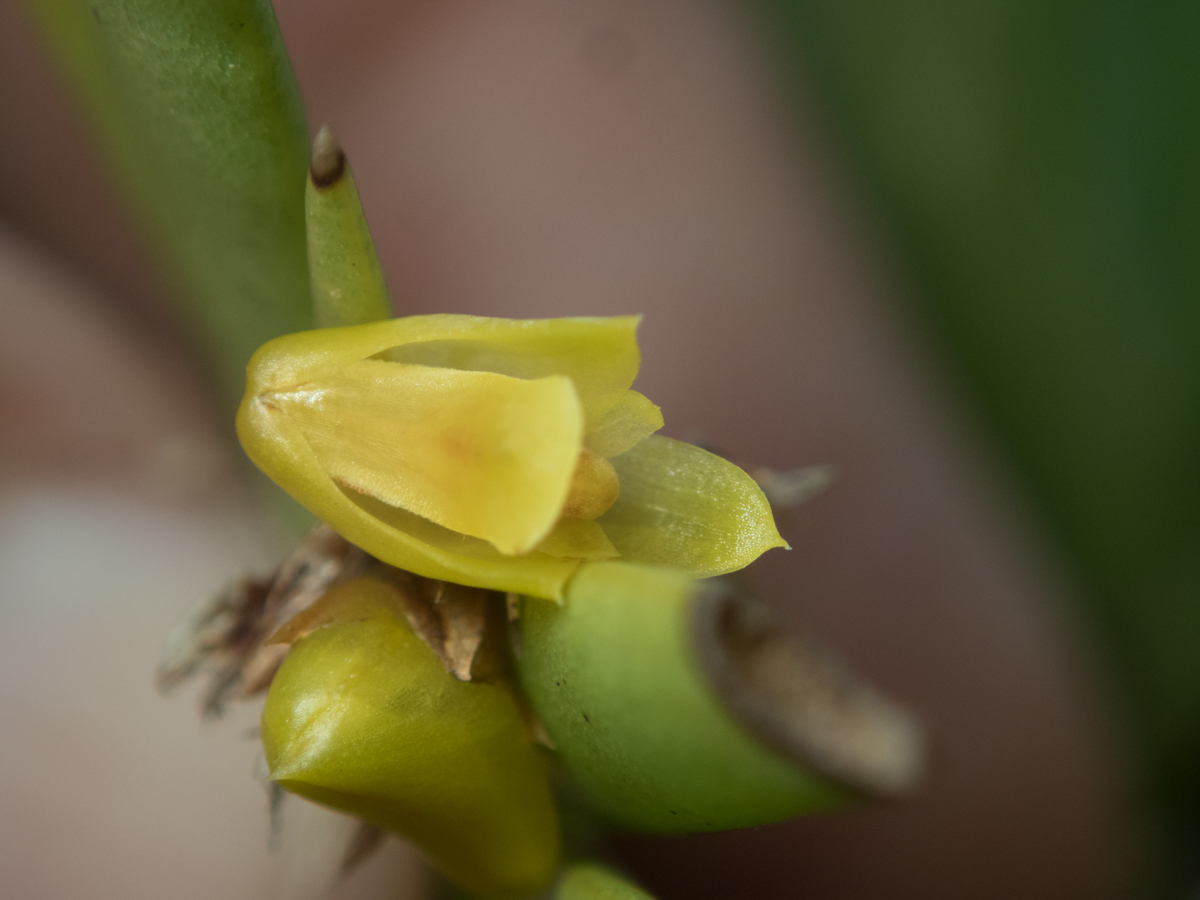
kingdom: Plantae
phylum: Tracheophyta
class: Liliopsida
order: Asparagales
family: Orchidaceae
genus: Oxystophyllum
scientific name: Oxystophyllum carnosum
